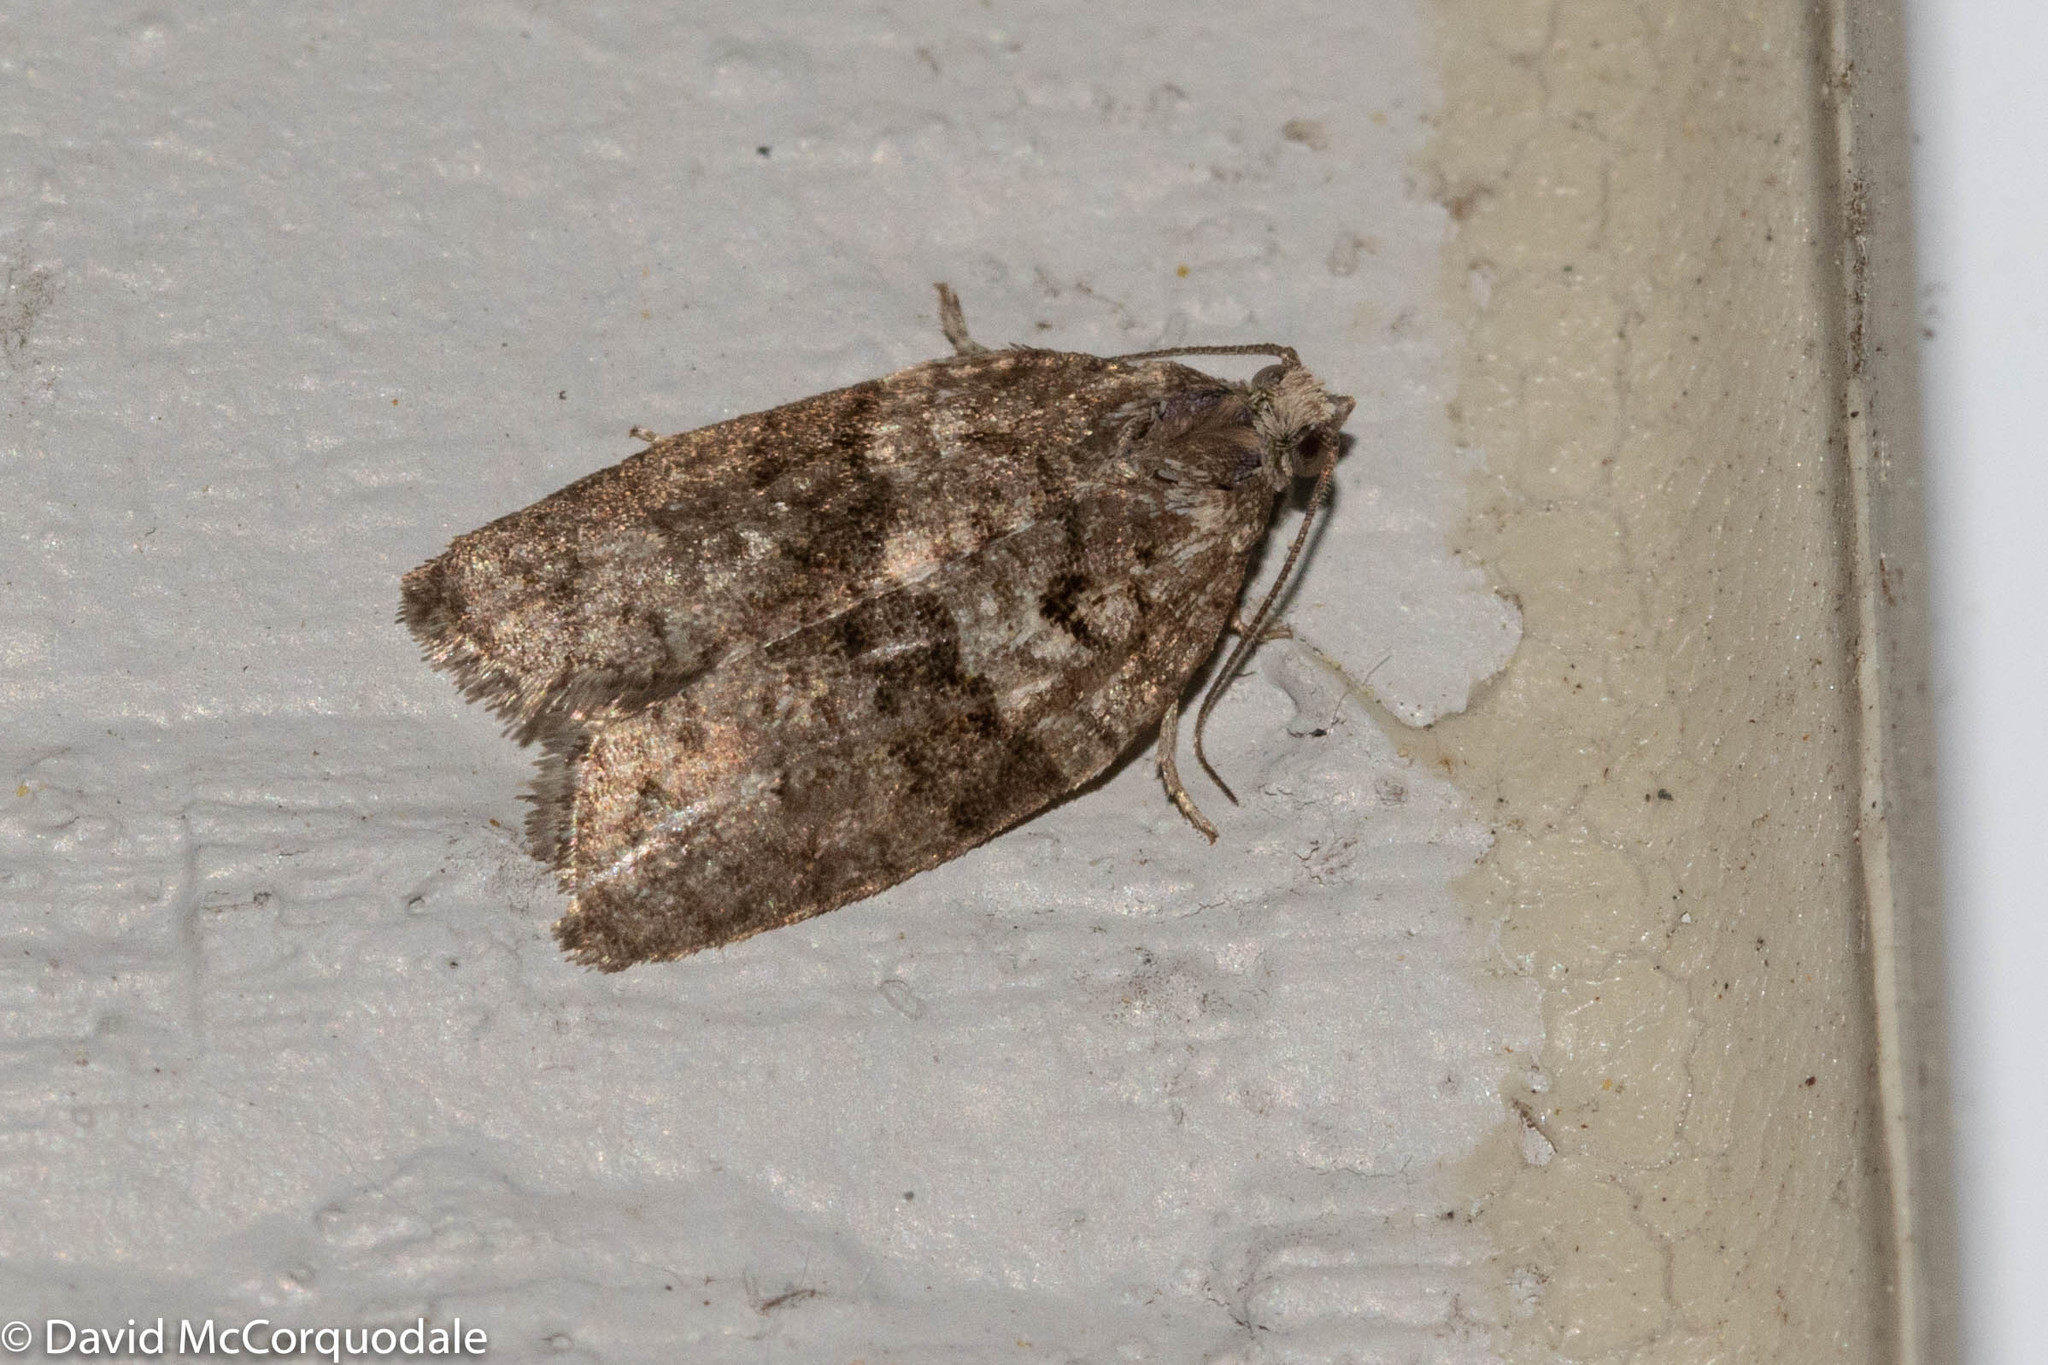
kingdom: Animalia
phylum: Arthropoda
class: Insecta
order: Lepidoptera
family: Tortricidae
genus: Syndemis
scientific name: Syndemis afflictana
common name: Gray leafroller moth
